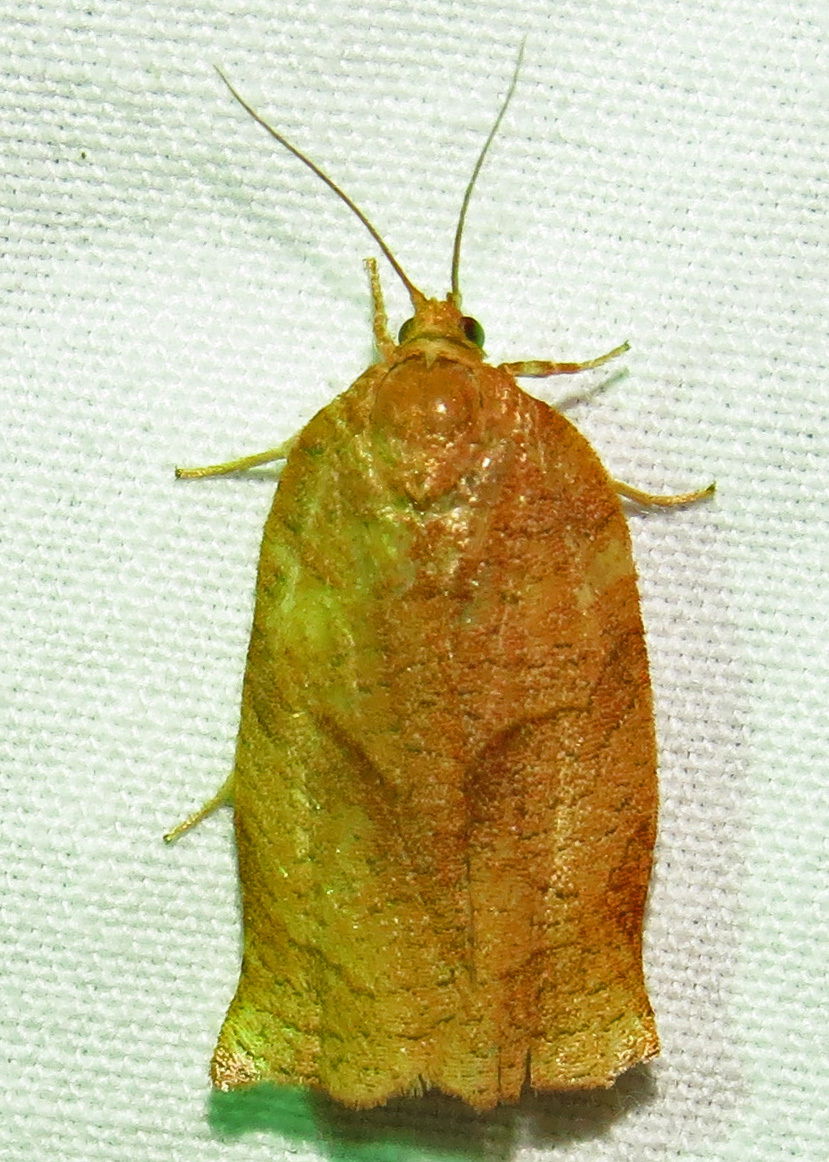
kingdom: Animalia
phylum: Arthropoda
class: Insecta
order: Lepidoptera
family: Tortricidae
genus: Choristoneura
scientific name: Choristoneura rosaceana
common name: Oblique-banded leafroller moth
